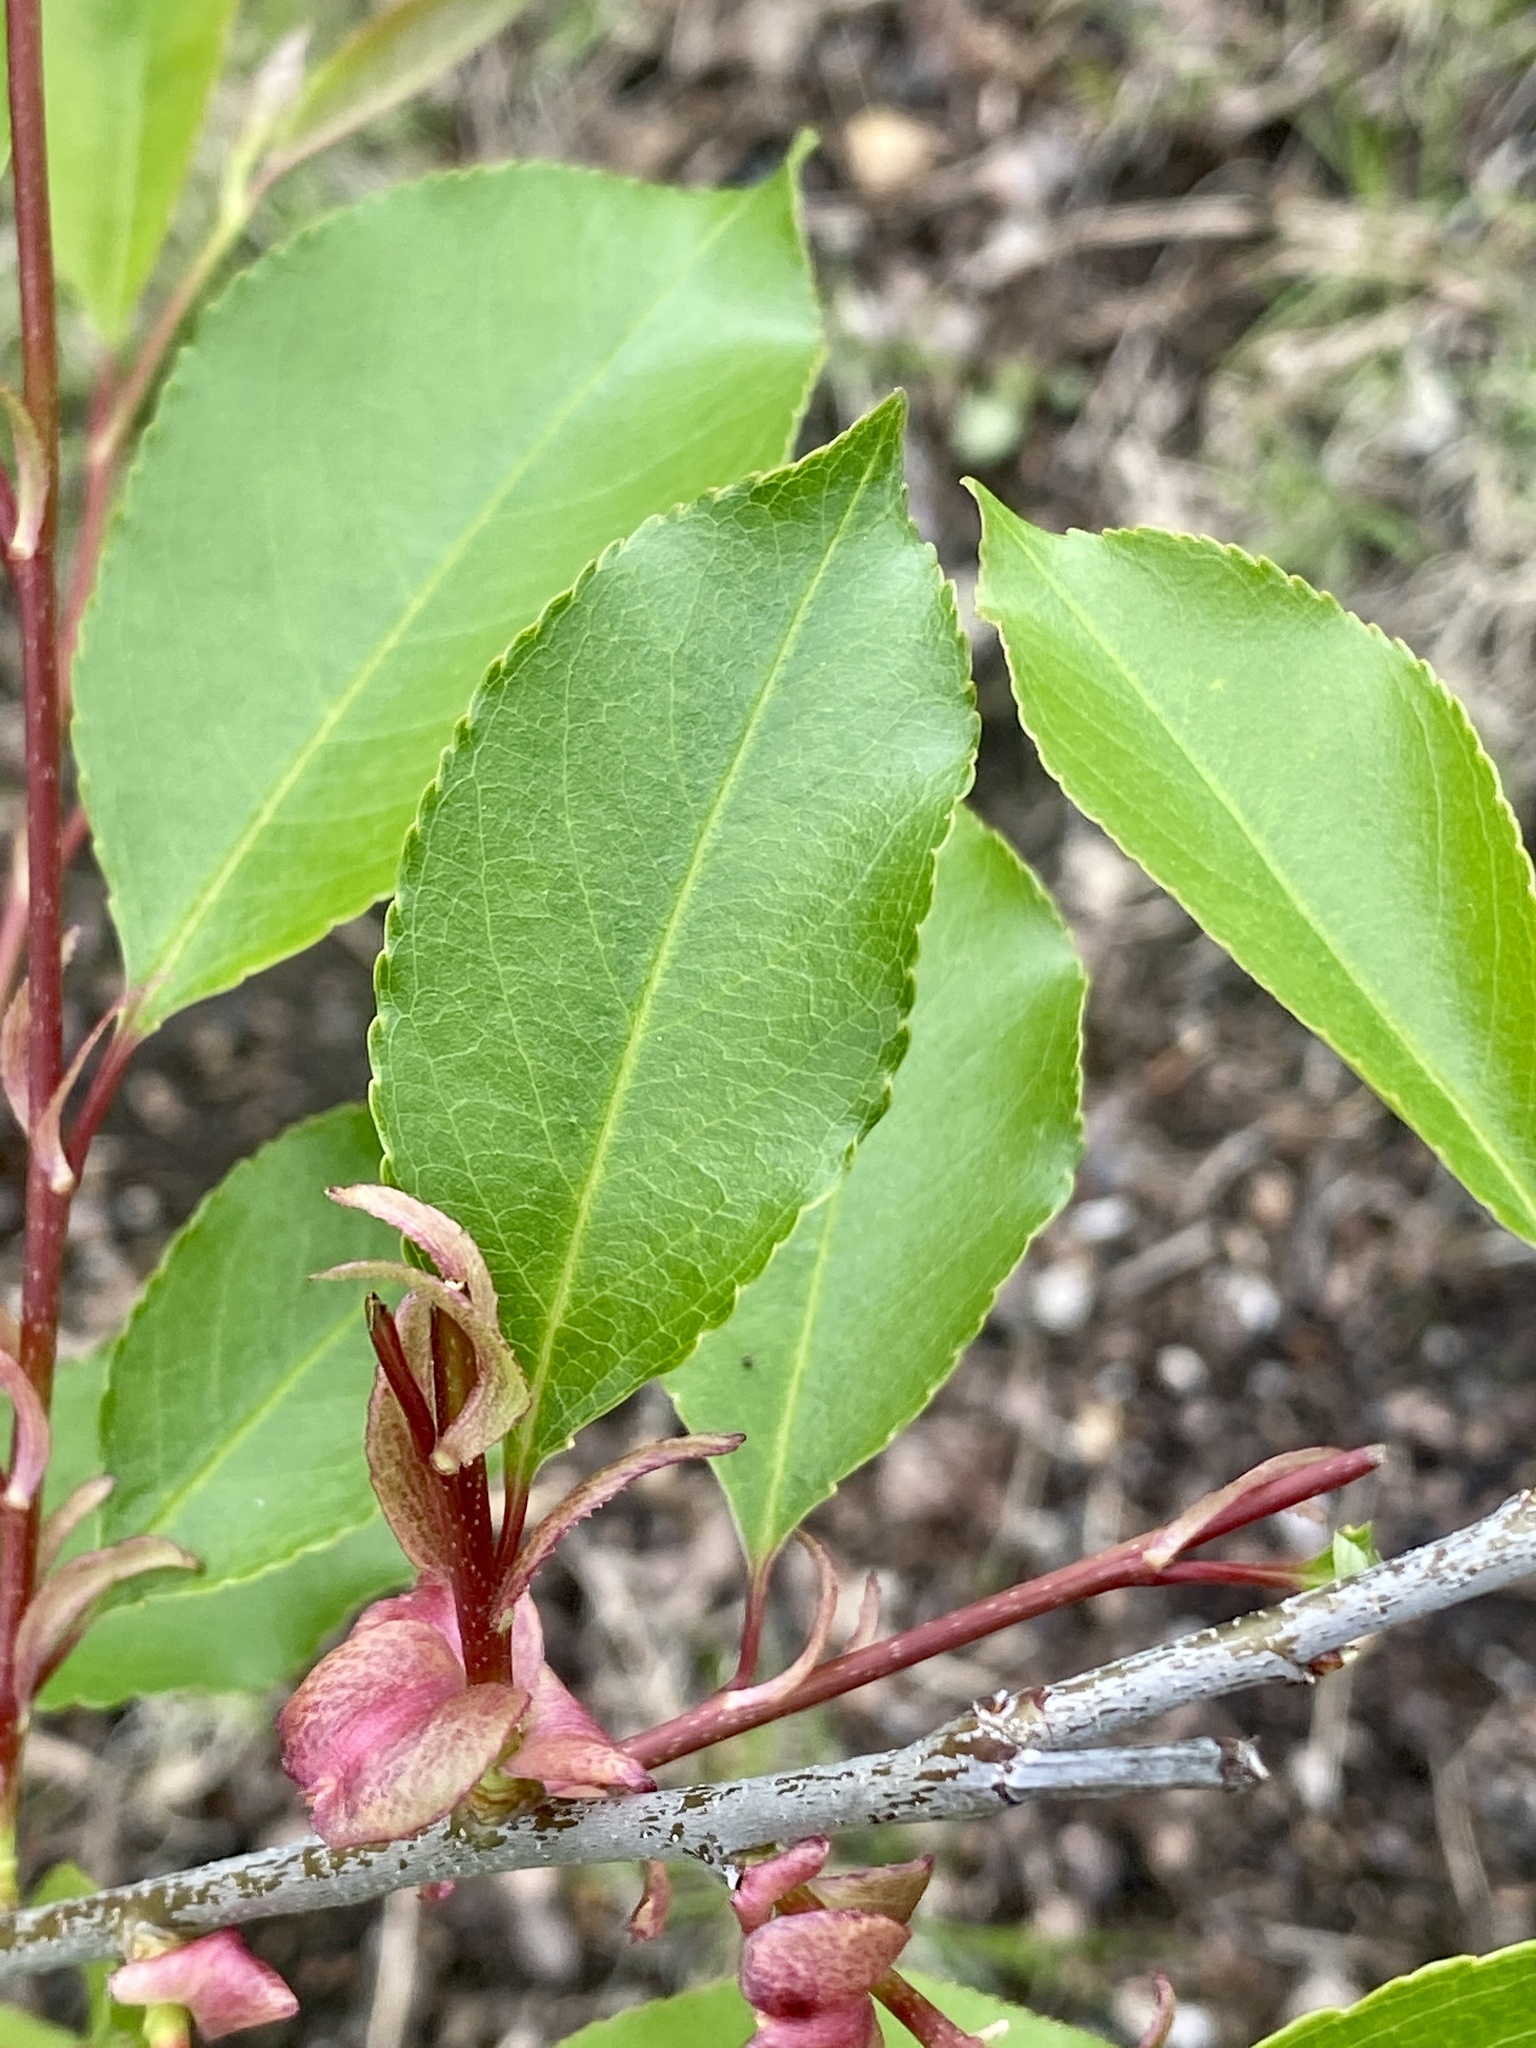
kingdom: Plantae
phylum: Tracheophyta
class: Magnoliopsida
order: Rosales
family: Rosaceae
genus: Prunus
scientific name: Prunus serotina
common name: Black cherry
